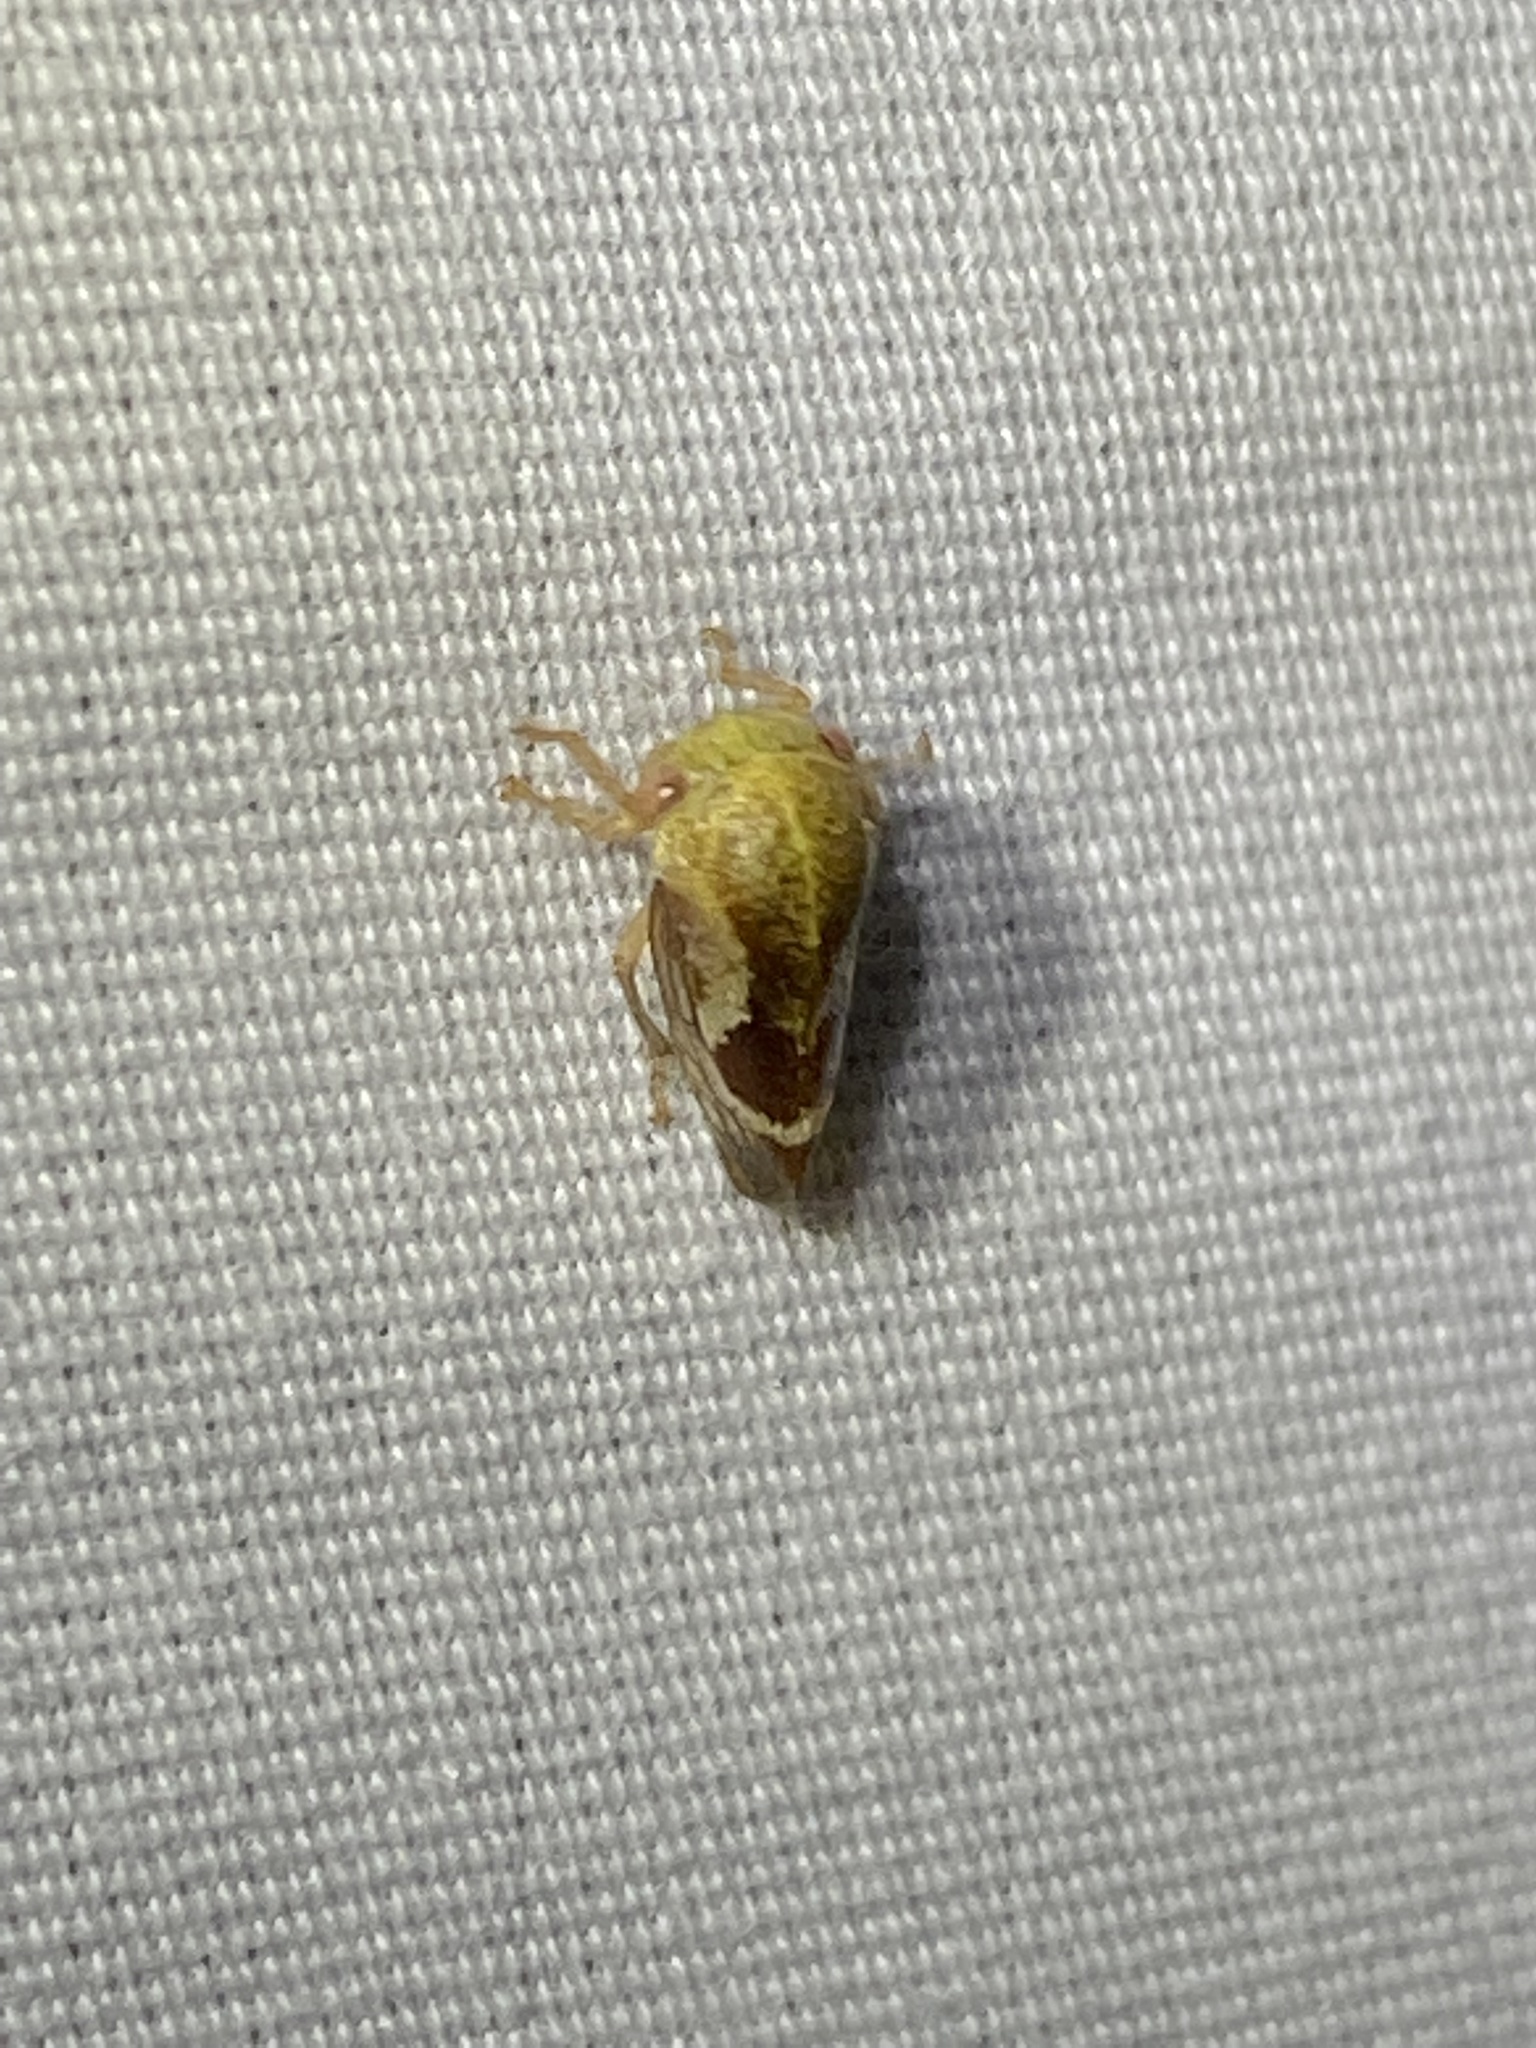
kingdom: Animalia
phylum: Arthropoda
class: Insecta
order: Hemiptera
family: Membracidae
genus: Ophiderma
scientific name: Ophiderma evelyna
